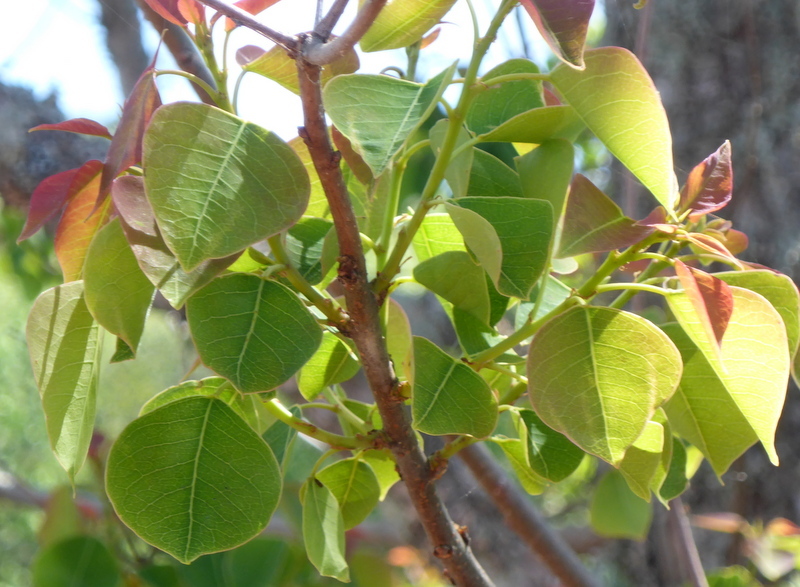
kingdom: Plantae
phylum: Tracheophyta
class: Magnoliopsida
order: Malpighiales
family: Euphorbiaceae
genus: Triadica
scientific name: Triadica sebifera
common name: Chinese tallow
